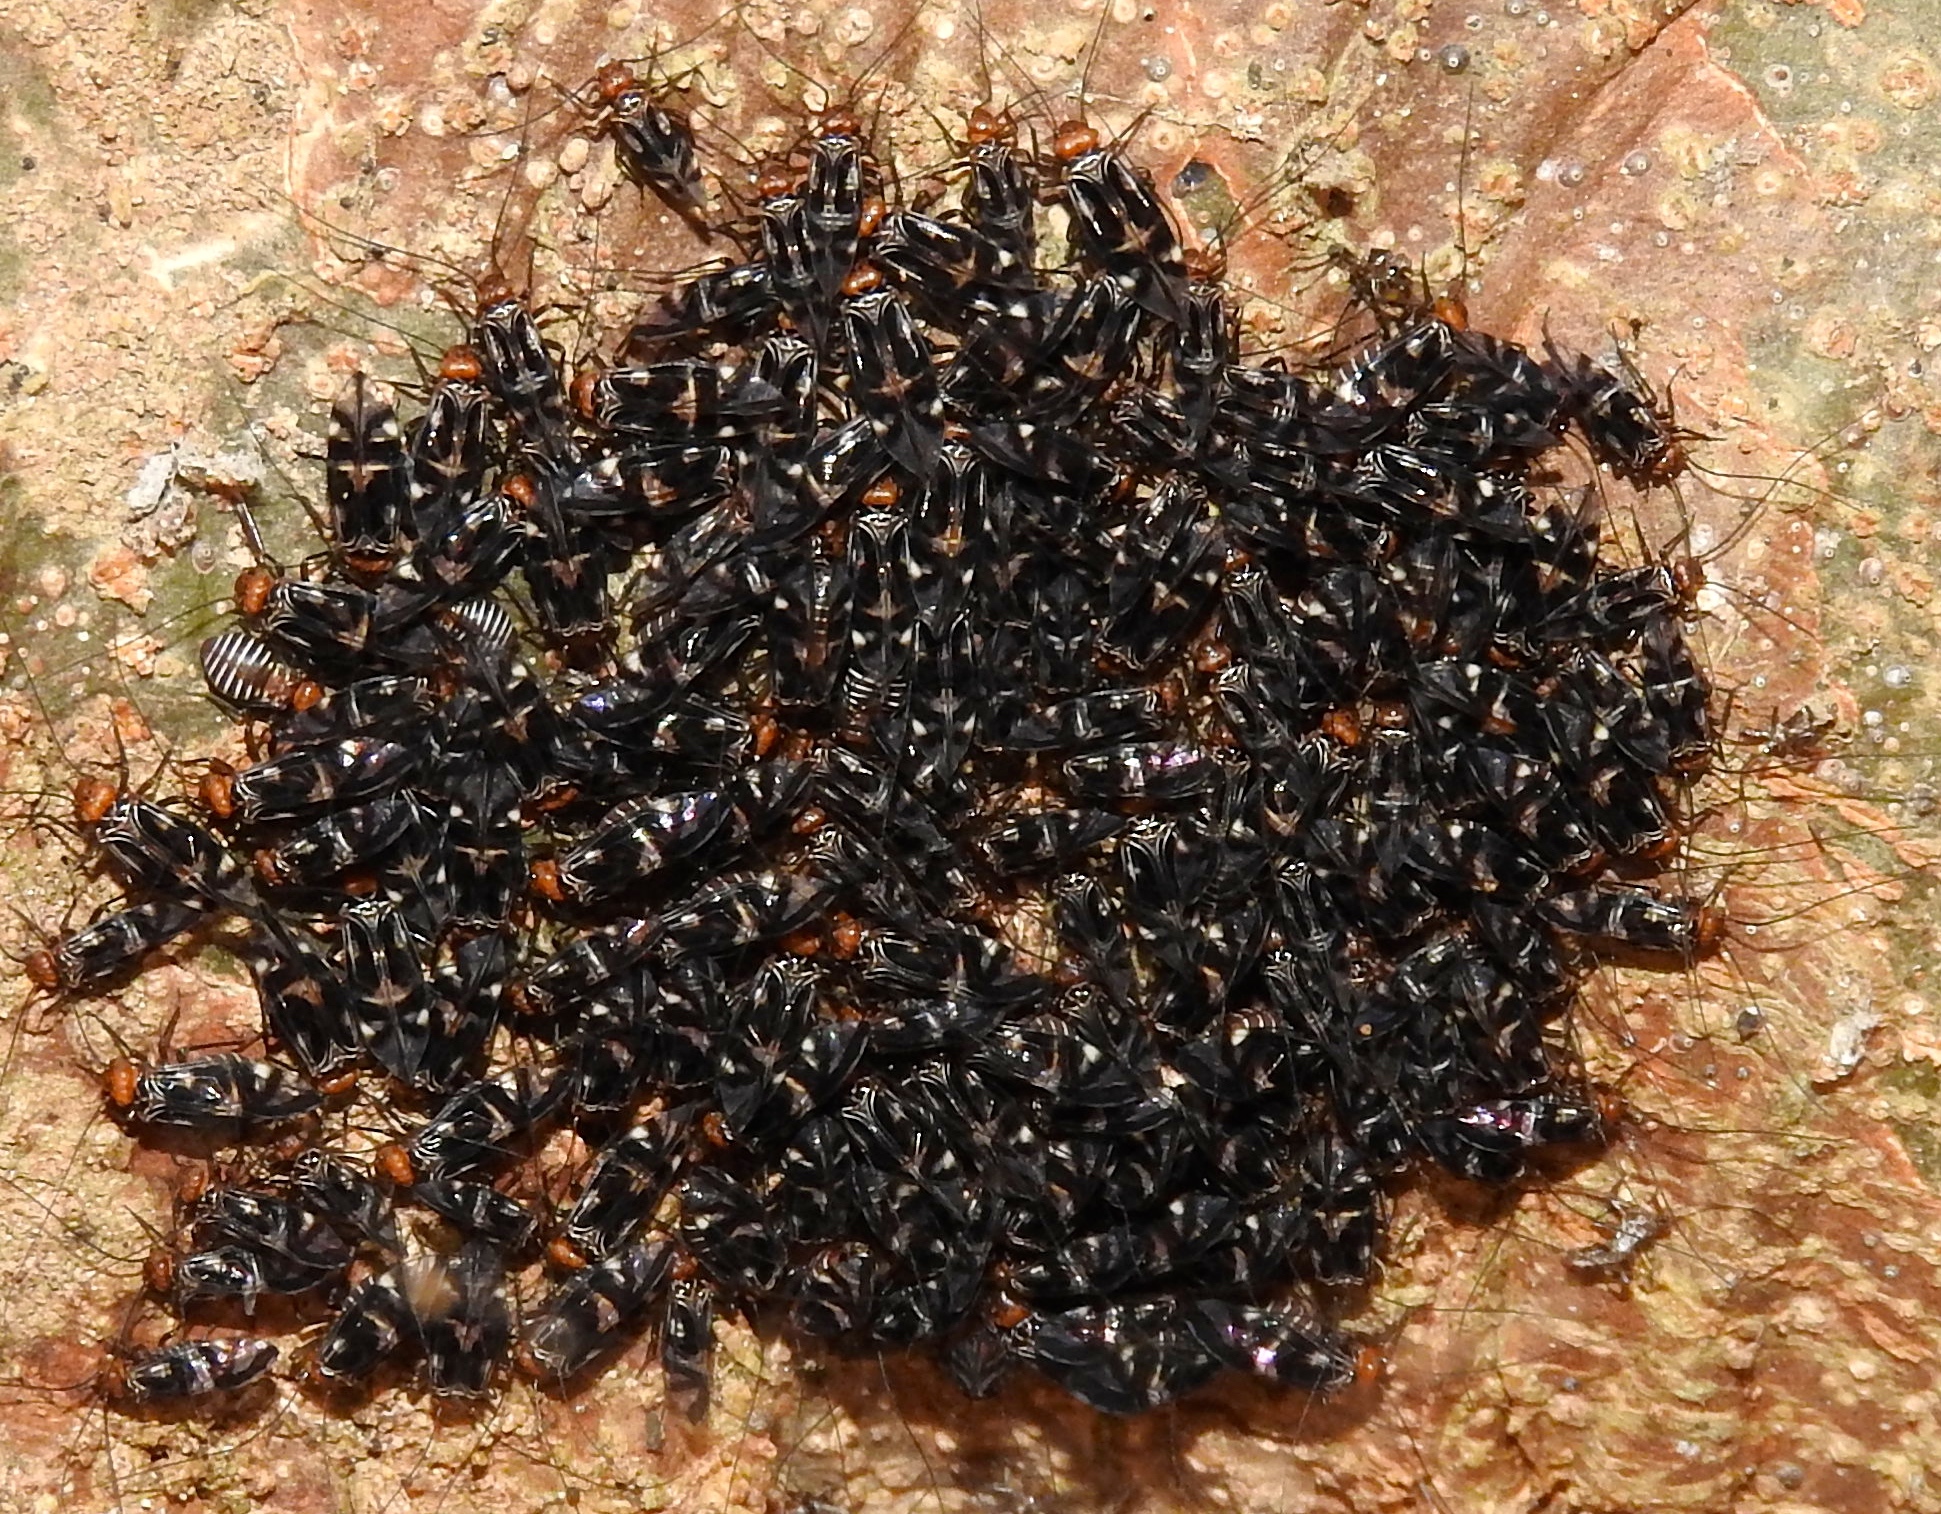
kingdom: Animalia
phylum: Arthropoda
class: Insecta
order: Psocodea
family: Psocidae
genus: Cerastipsocus
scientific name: Cerastipsocus venosus
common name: Tree cattle
